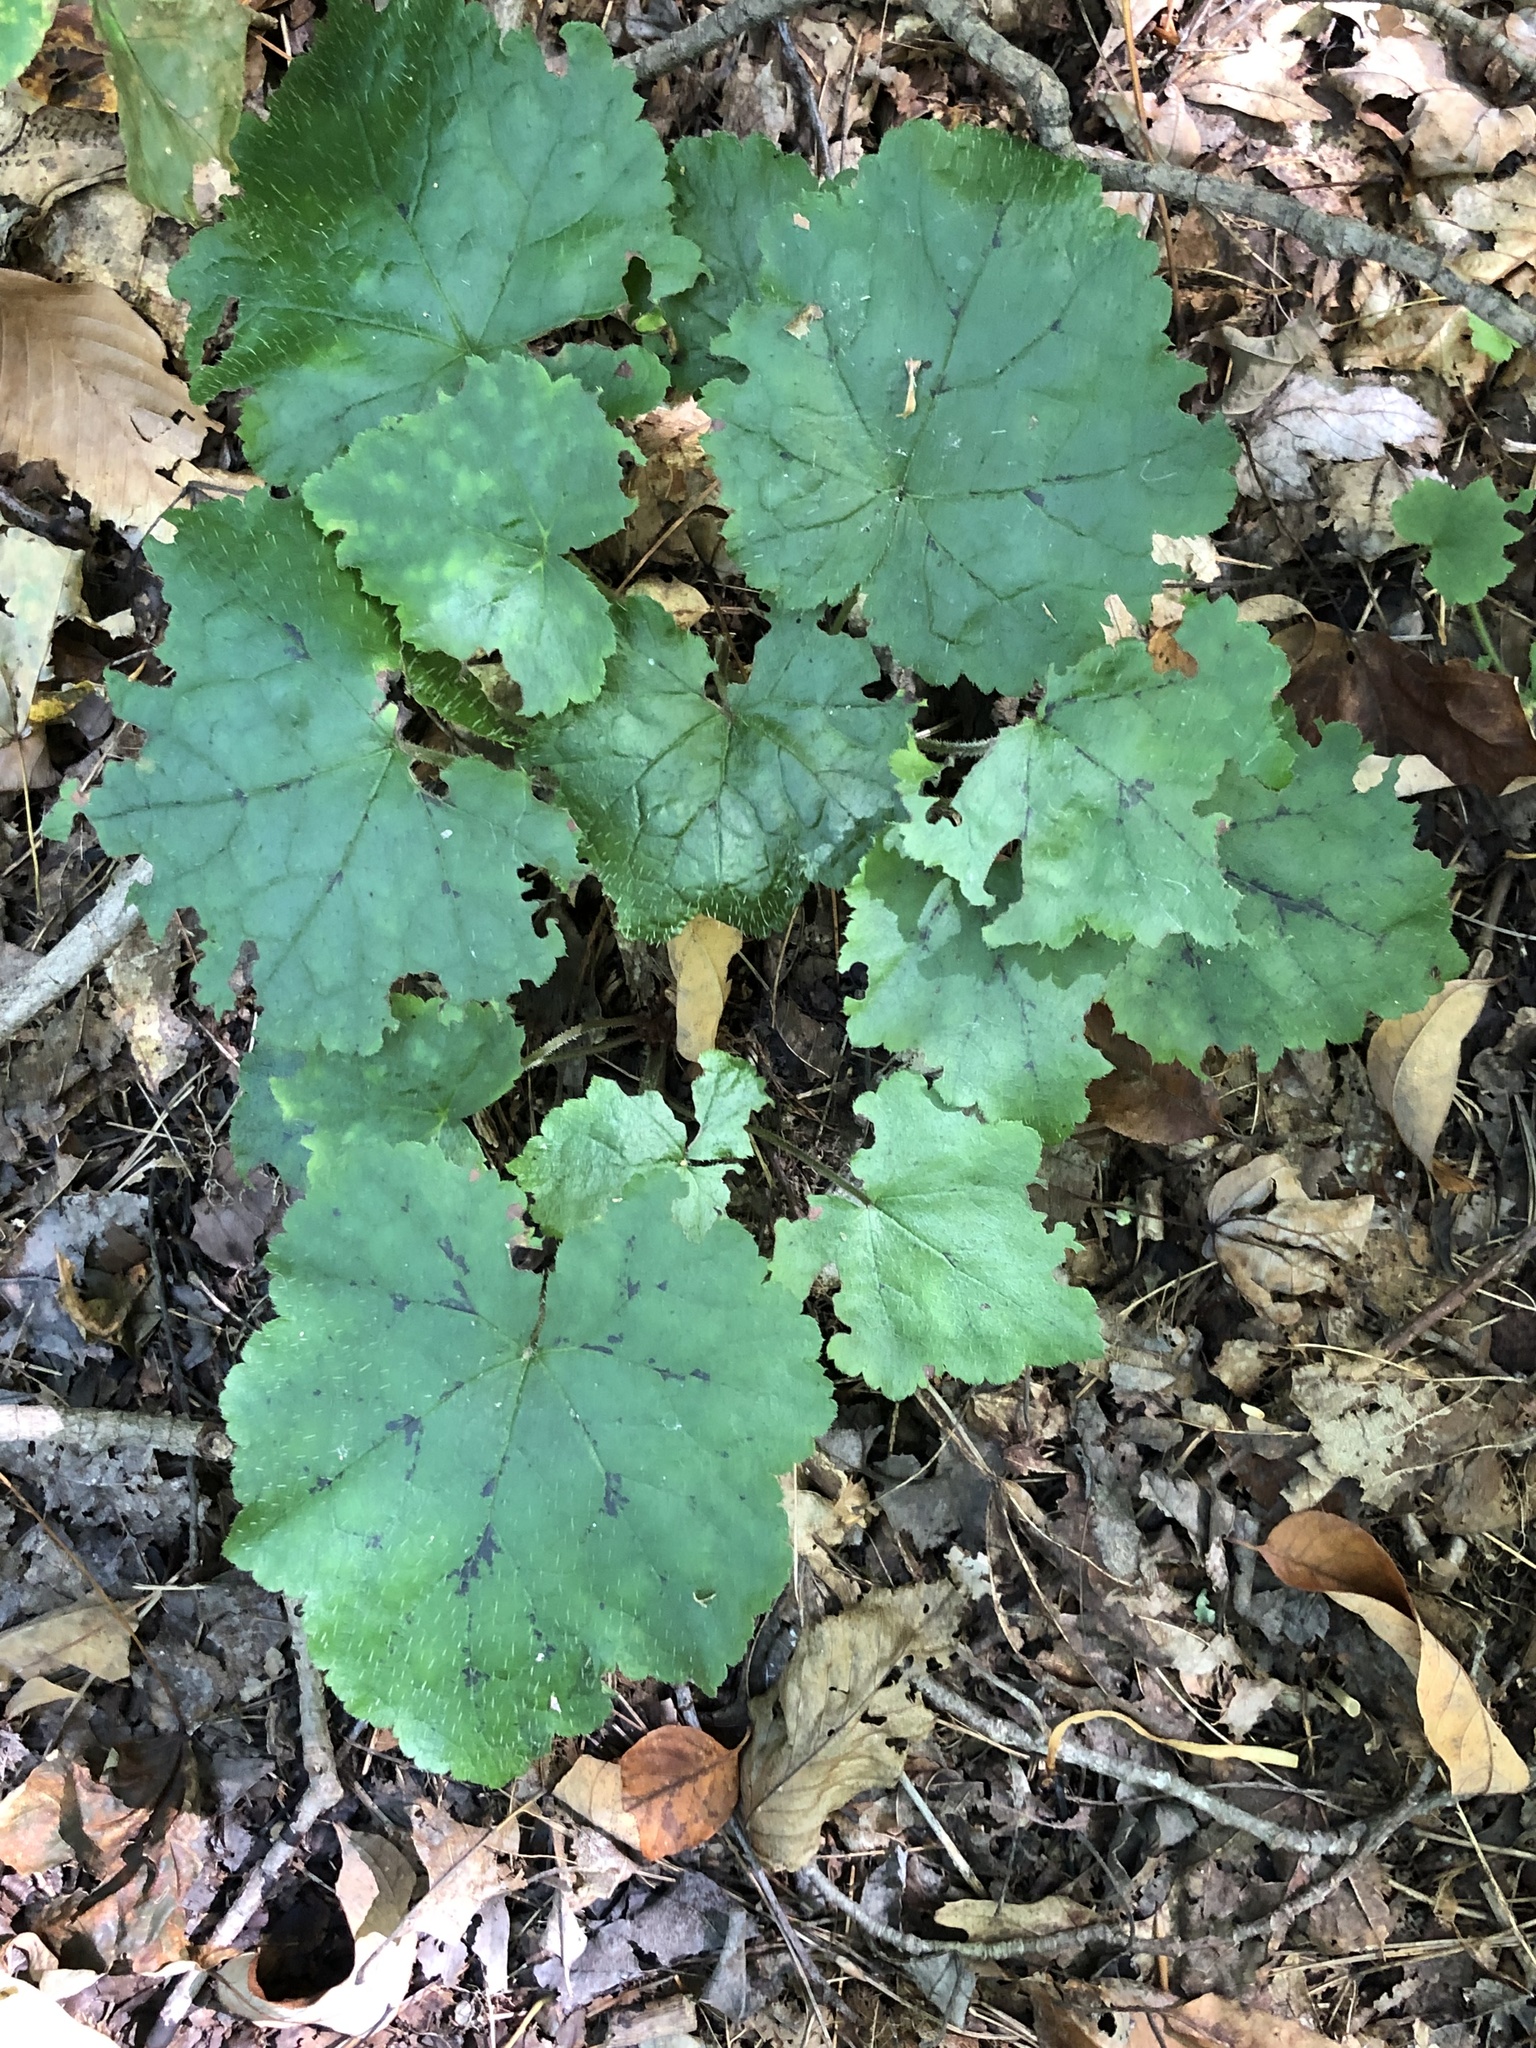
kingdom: Plantae
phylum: Tracheophyta
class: Magnoliopsida
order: Saxifragales
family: Saxifragaceae
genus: Tiarella
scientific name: Tiarella stolonifera
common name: Stoloniferous foamflower
